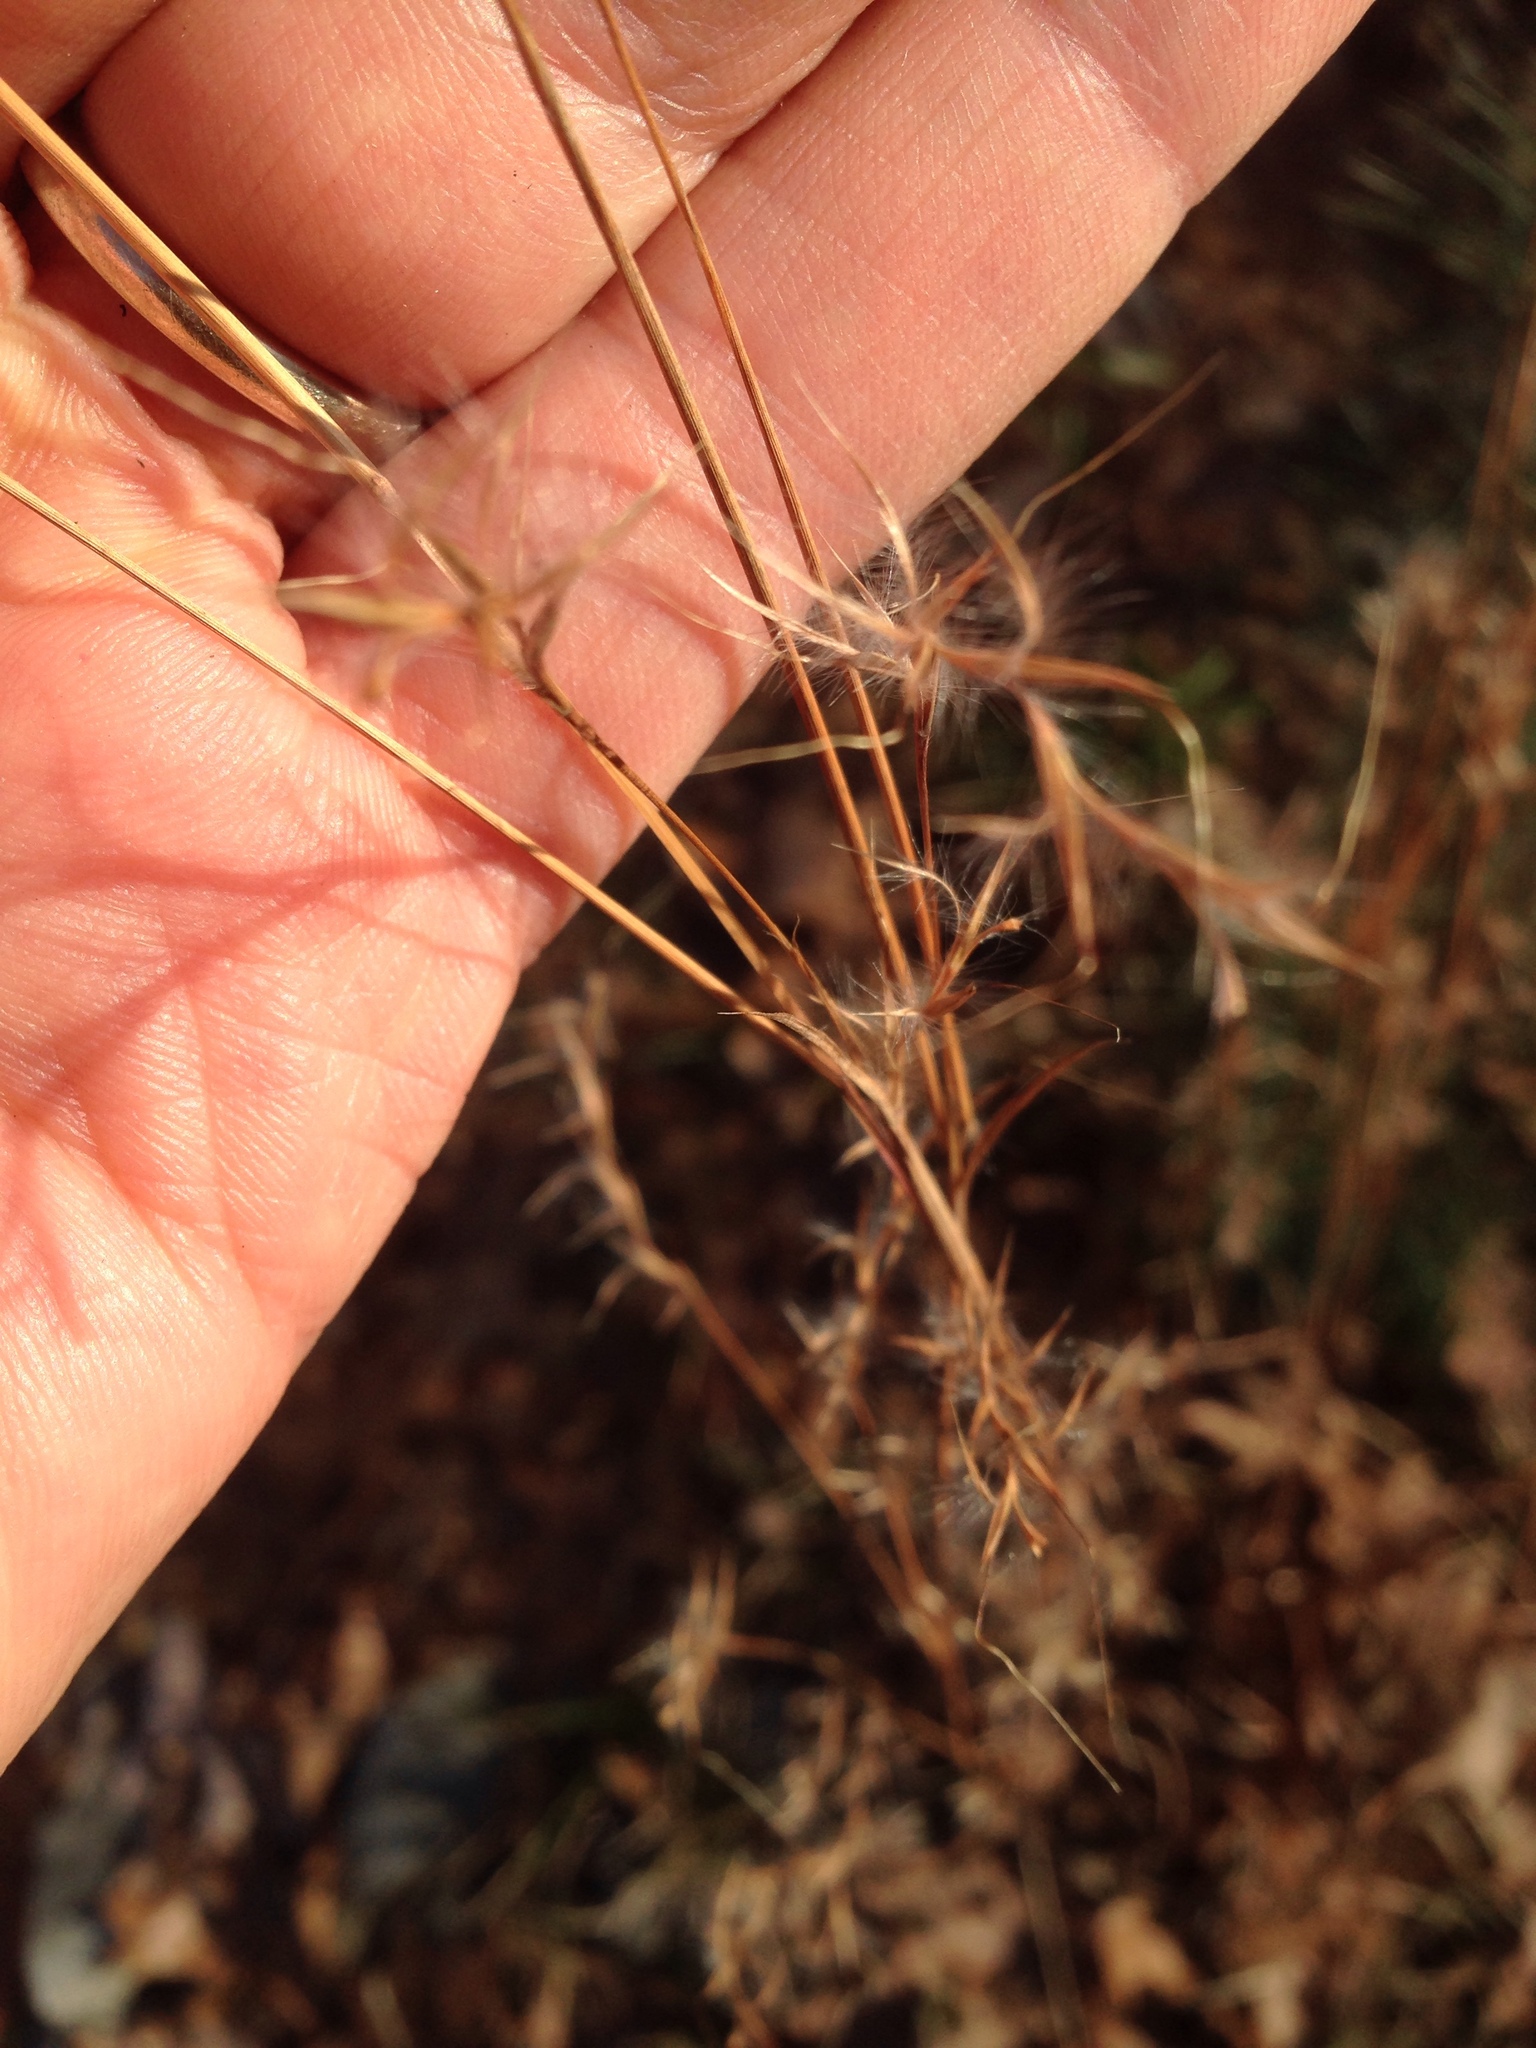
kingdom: Plantae
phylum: Tracheophyta
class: Liliopsida
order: Poales
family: Poaceae
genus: Schizachyrium
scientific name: Schizachyrium scoparium
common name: Little bluestem
